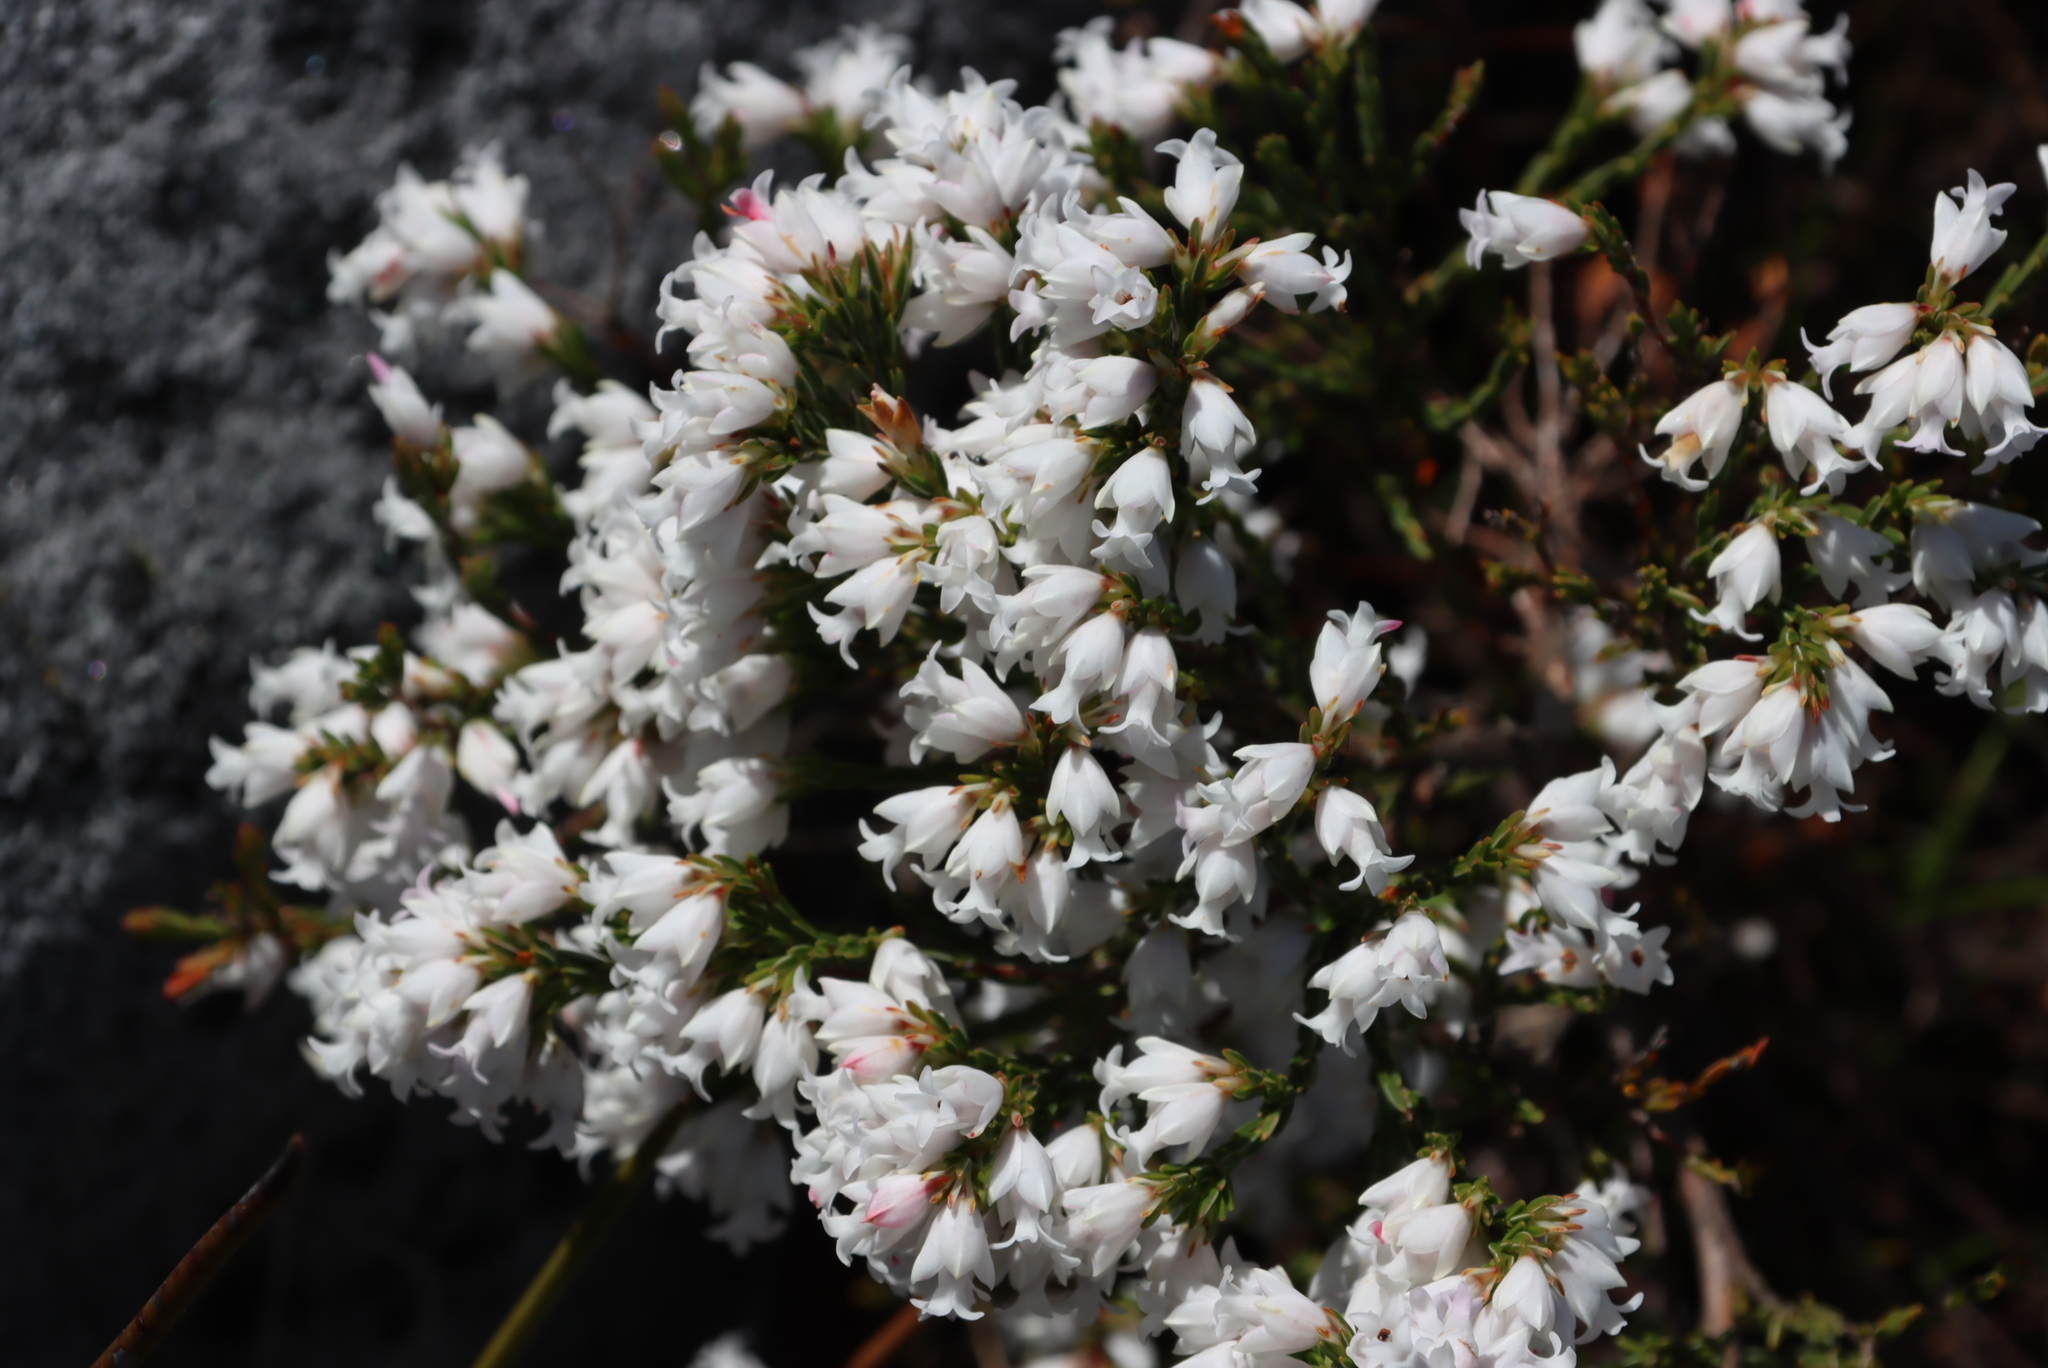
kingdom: Plantae
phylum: Tracheophyta
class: Magnoliopsida
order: Ericales
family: Ericaceae
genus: Erica
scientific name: Erica lutea
